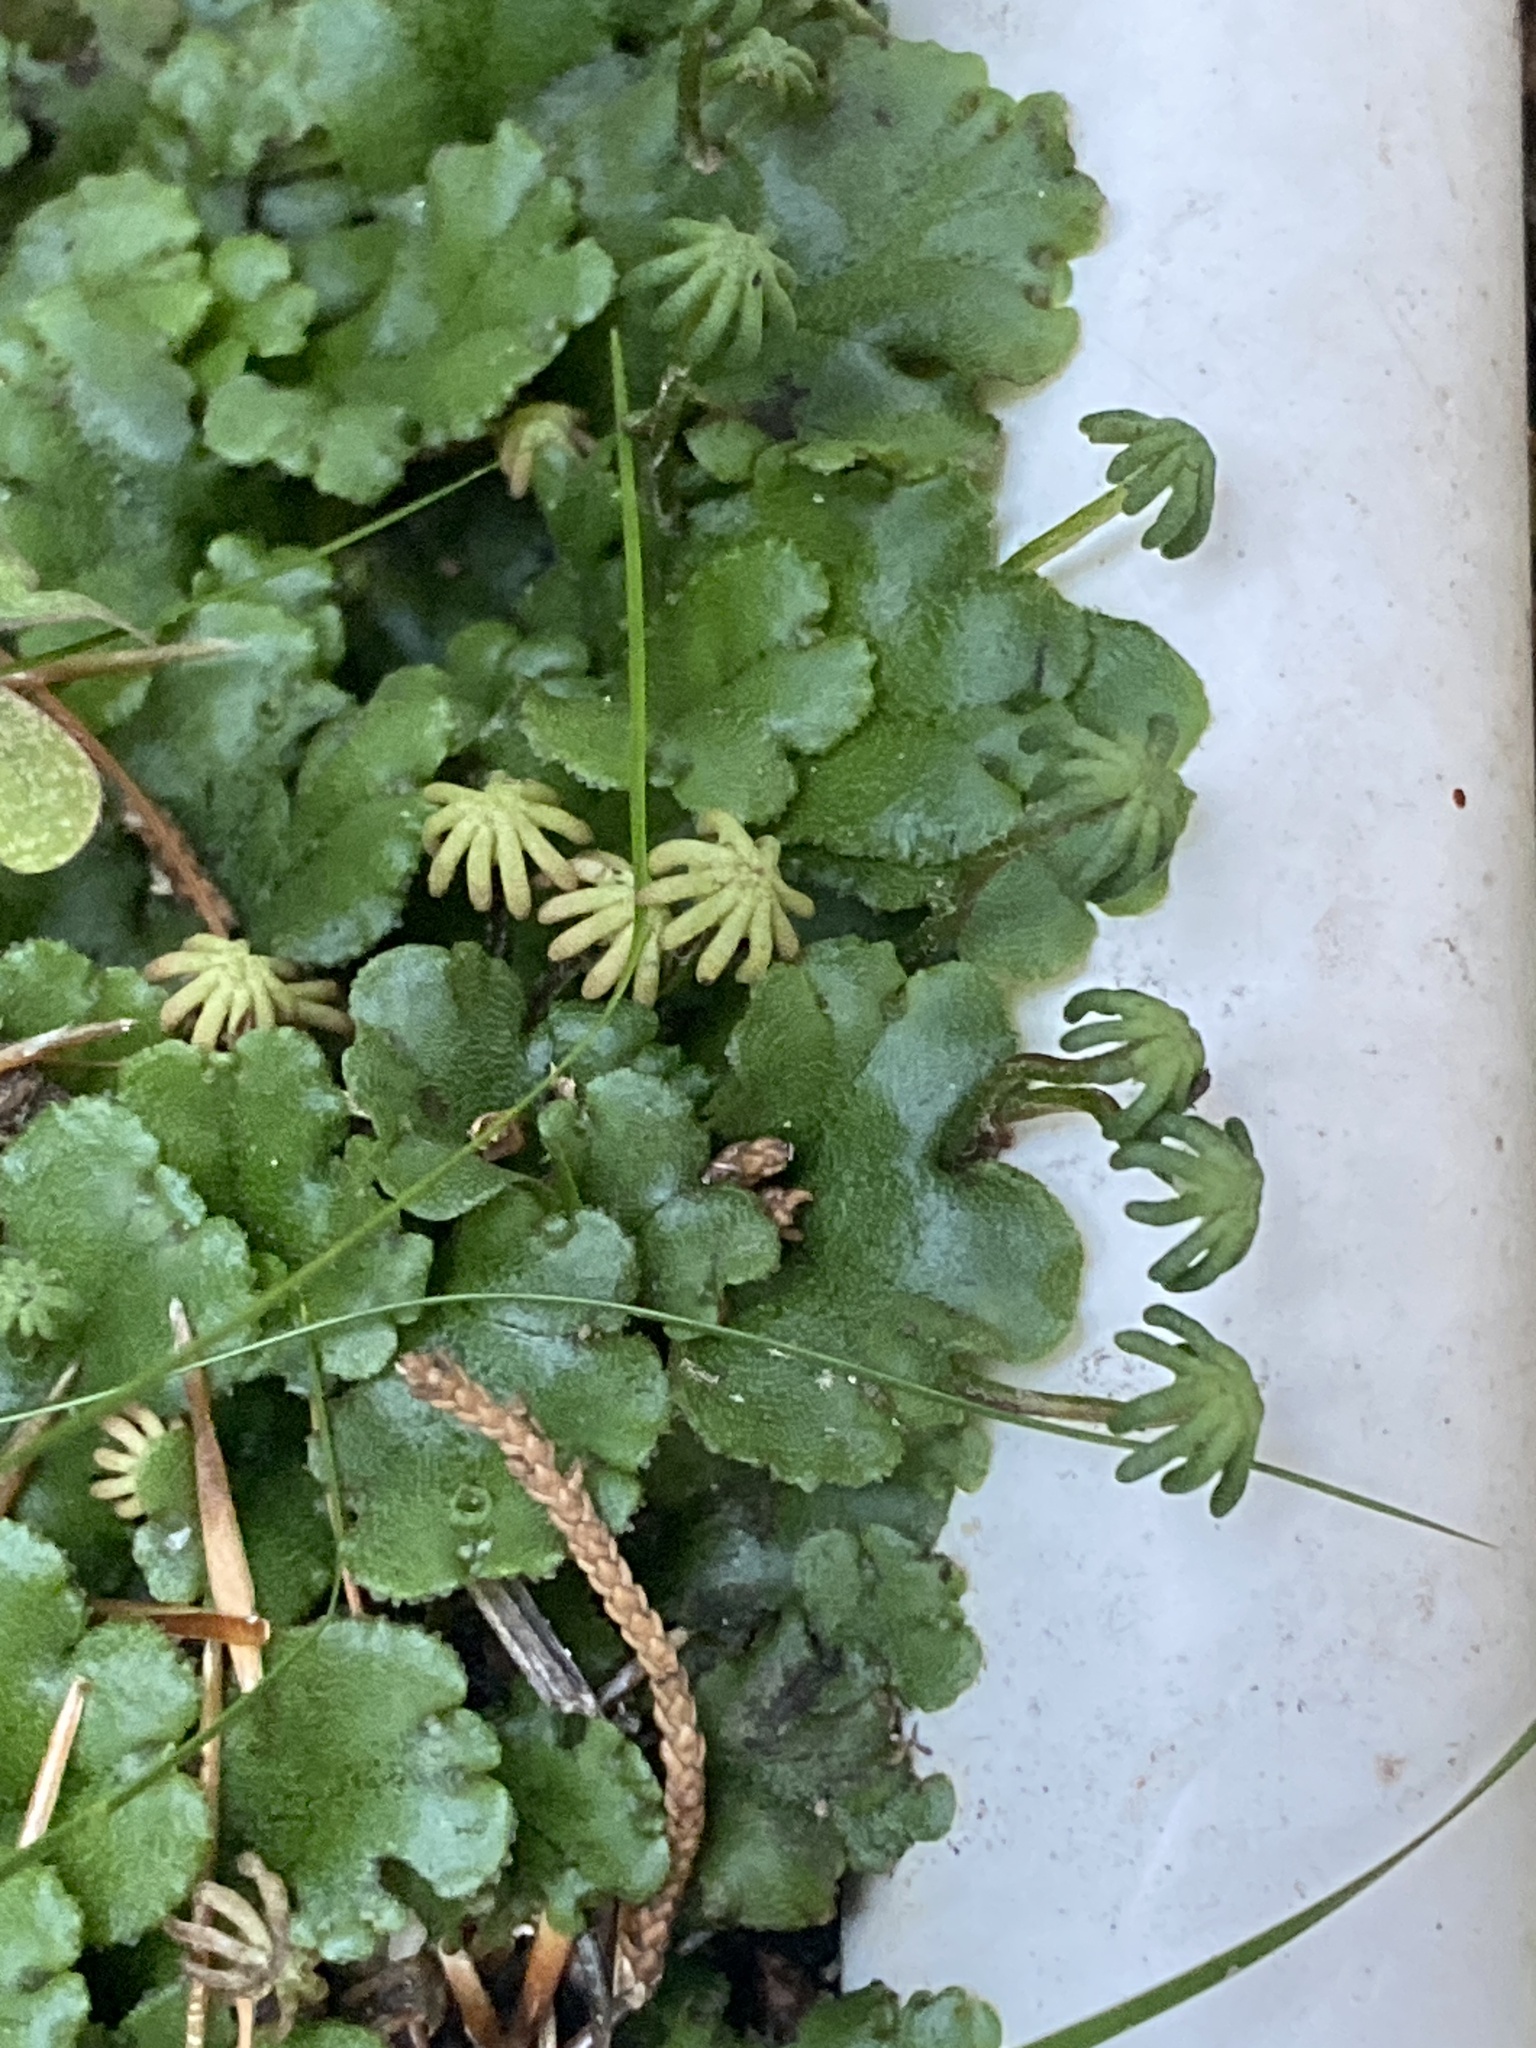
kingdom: Plantae
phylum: Marchantiophyta
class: Marchantiopsida
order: Marchantiales
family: Marchantiaceae
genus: Marchantia
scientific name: Marchantia polymorpha
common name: Common liverwort
